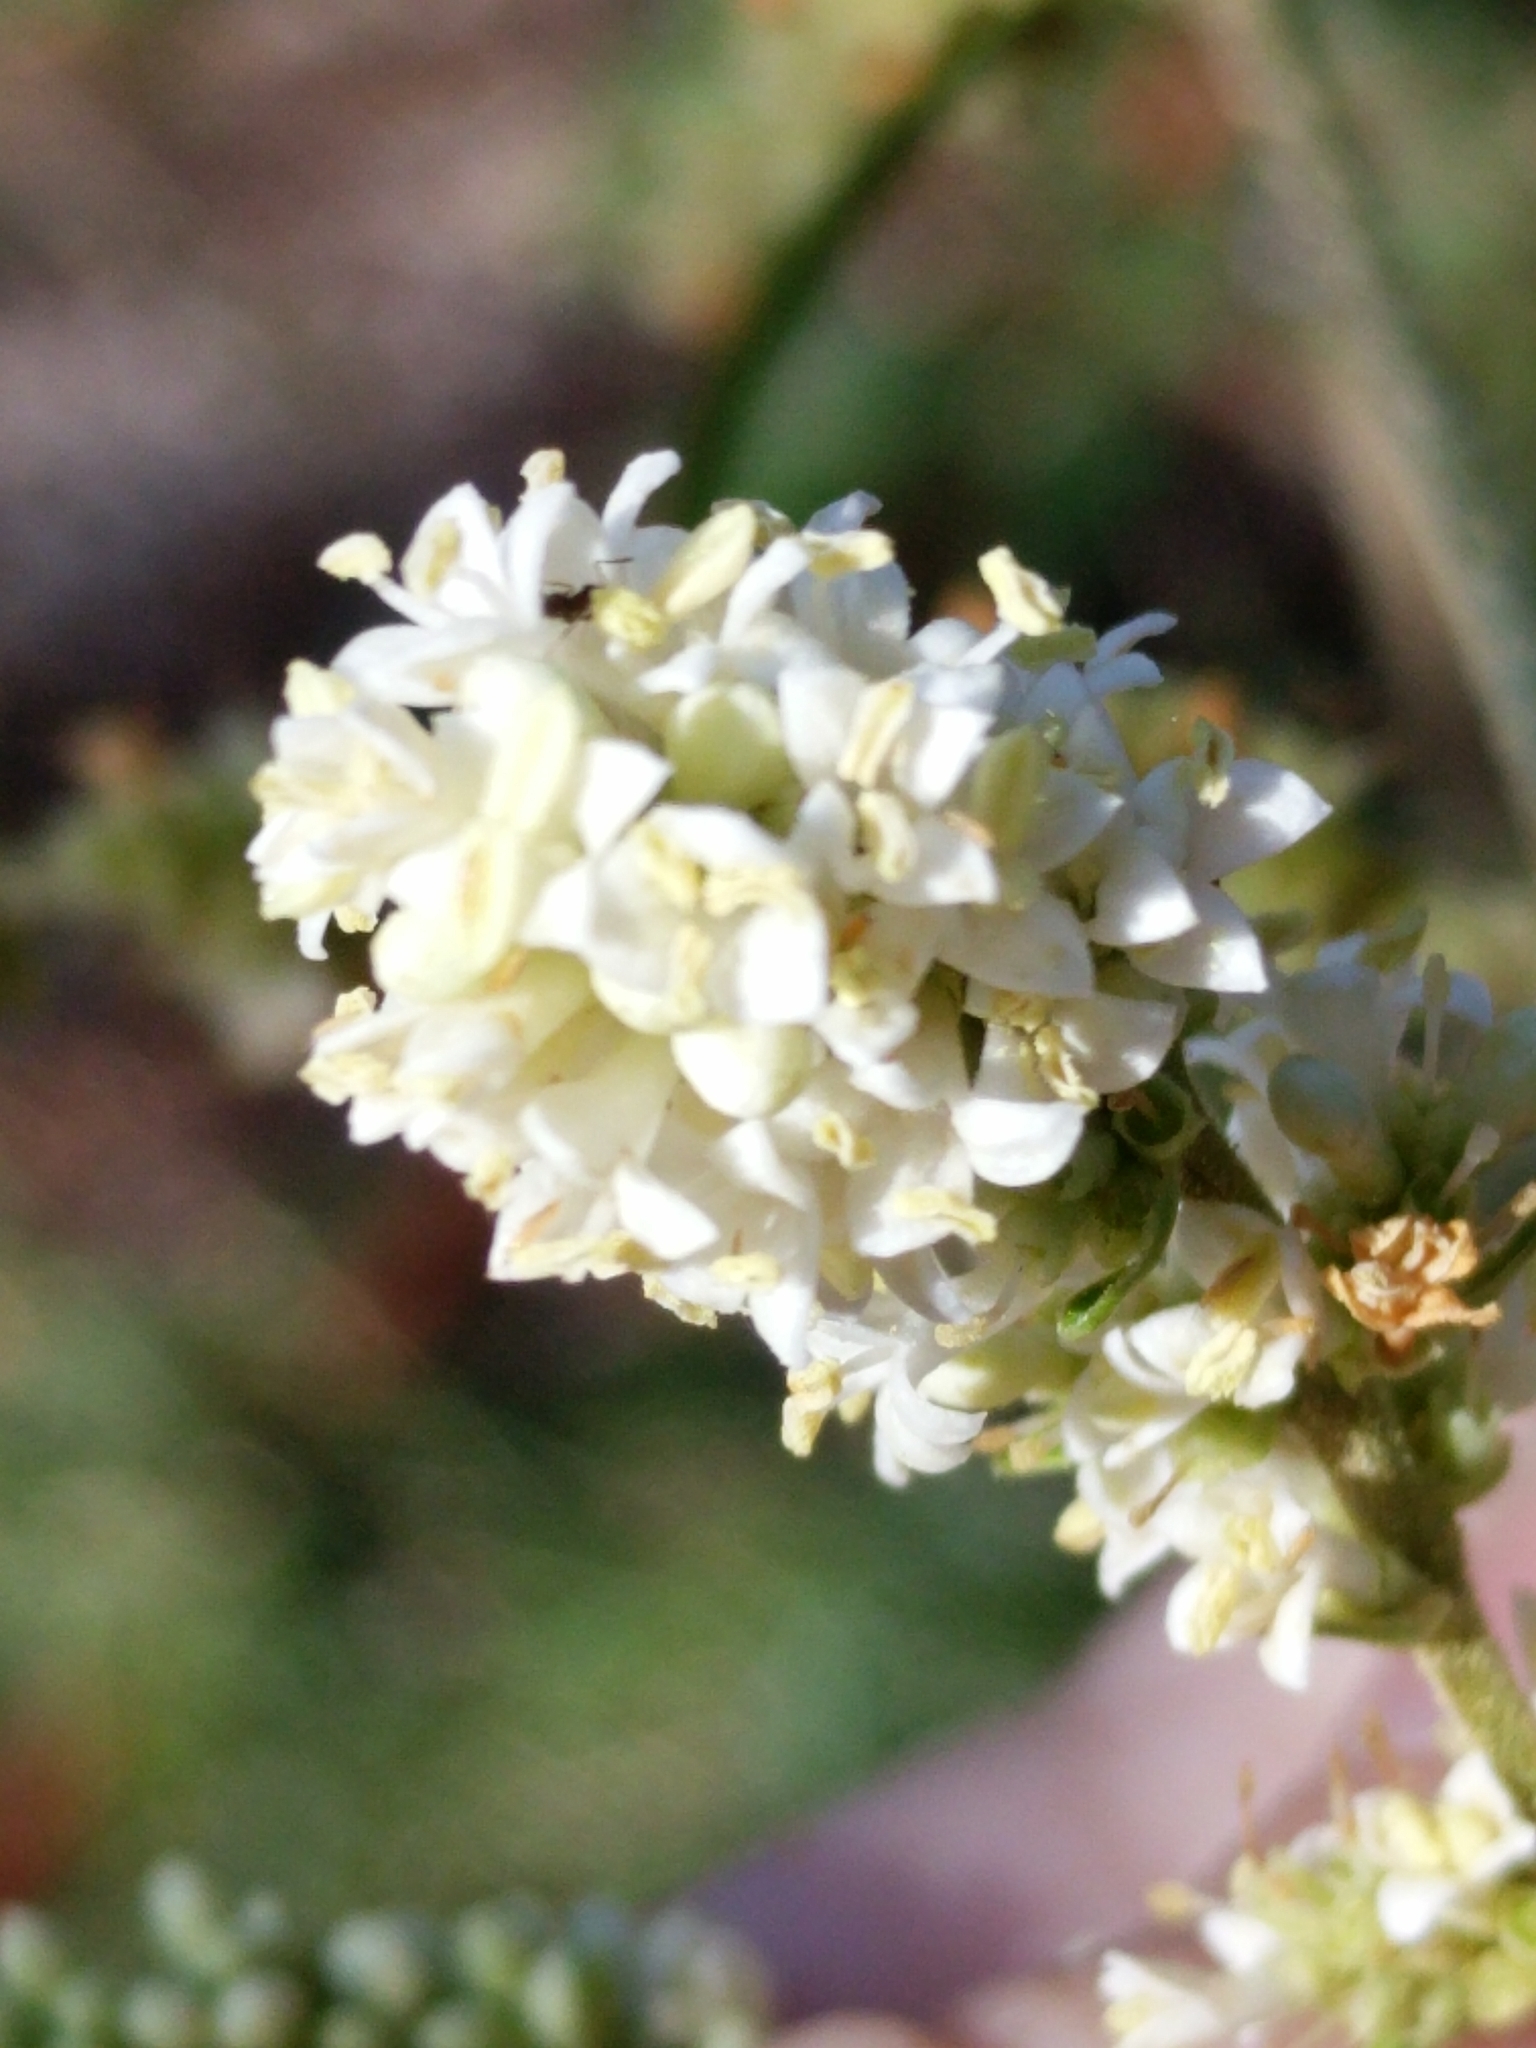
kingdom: Plantae
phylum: Tracheophyta
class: Magnoliopsida
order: Lamiales
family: Oleaceae
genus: Ligustrum
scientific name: Ligustrum quihoui
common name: Waxyleaf privet
